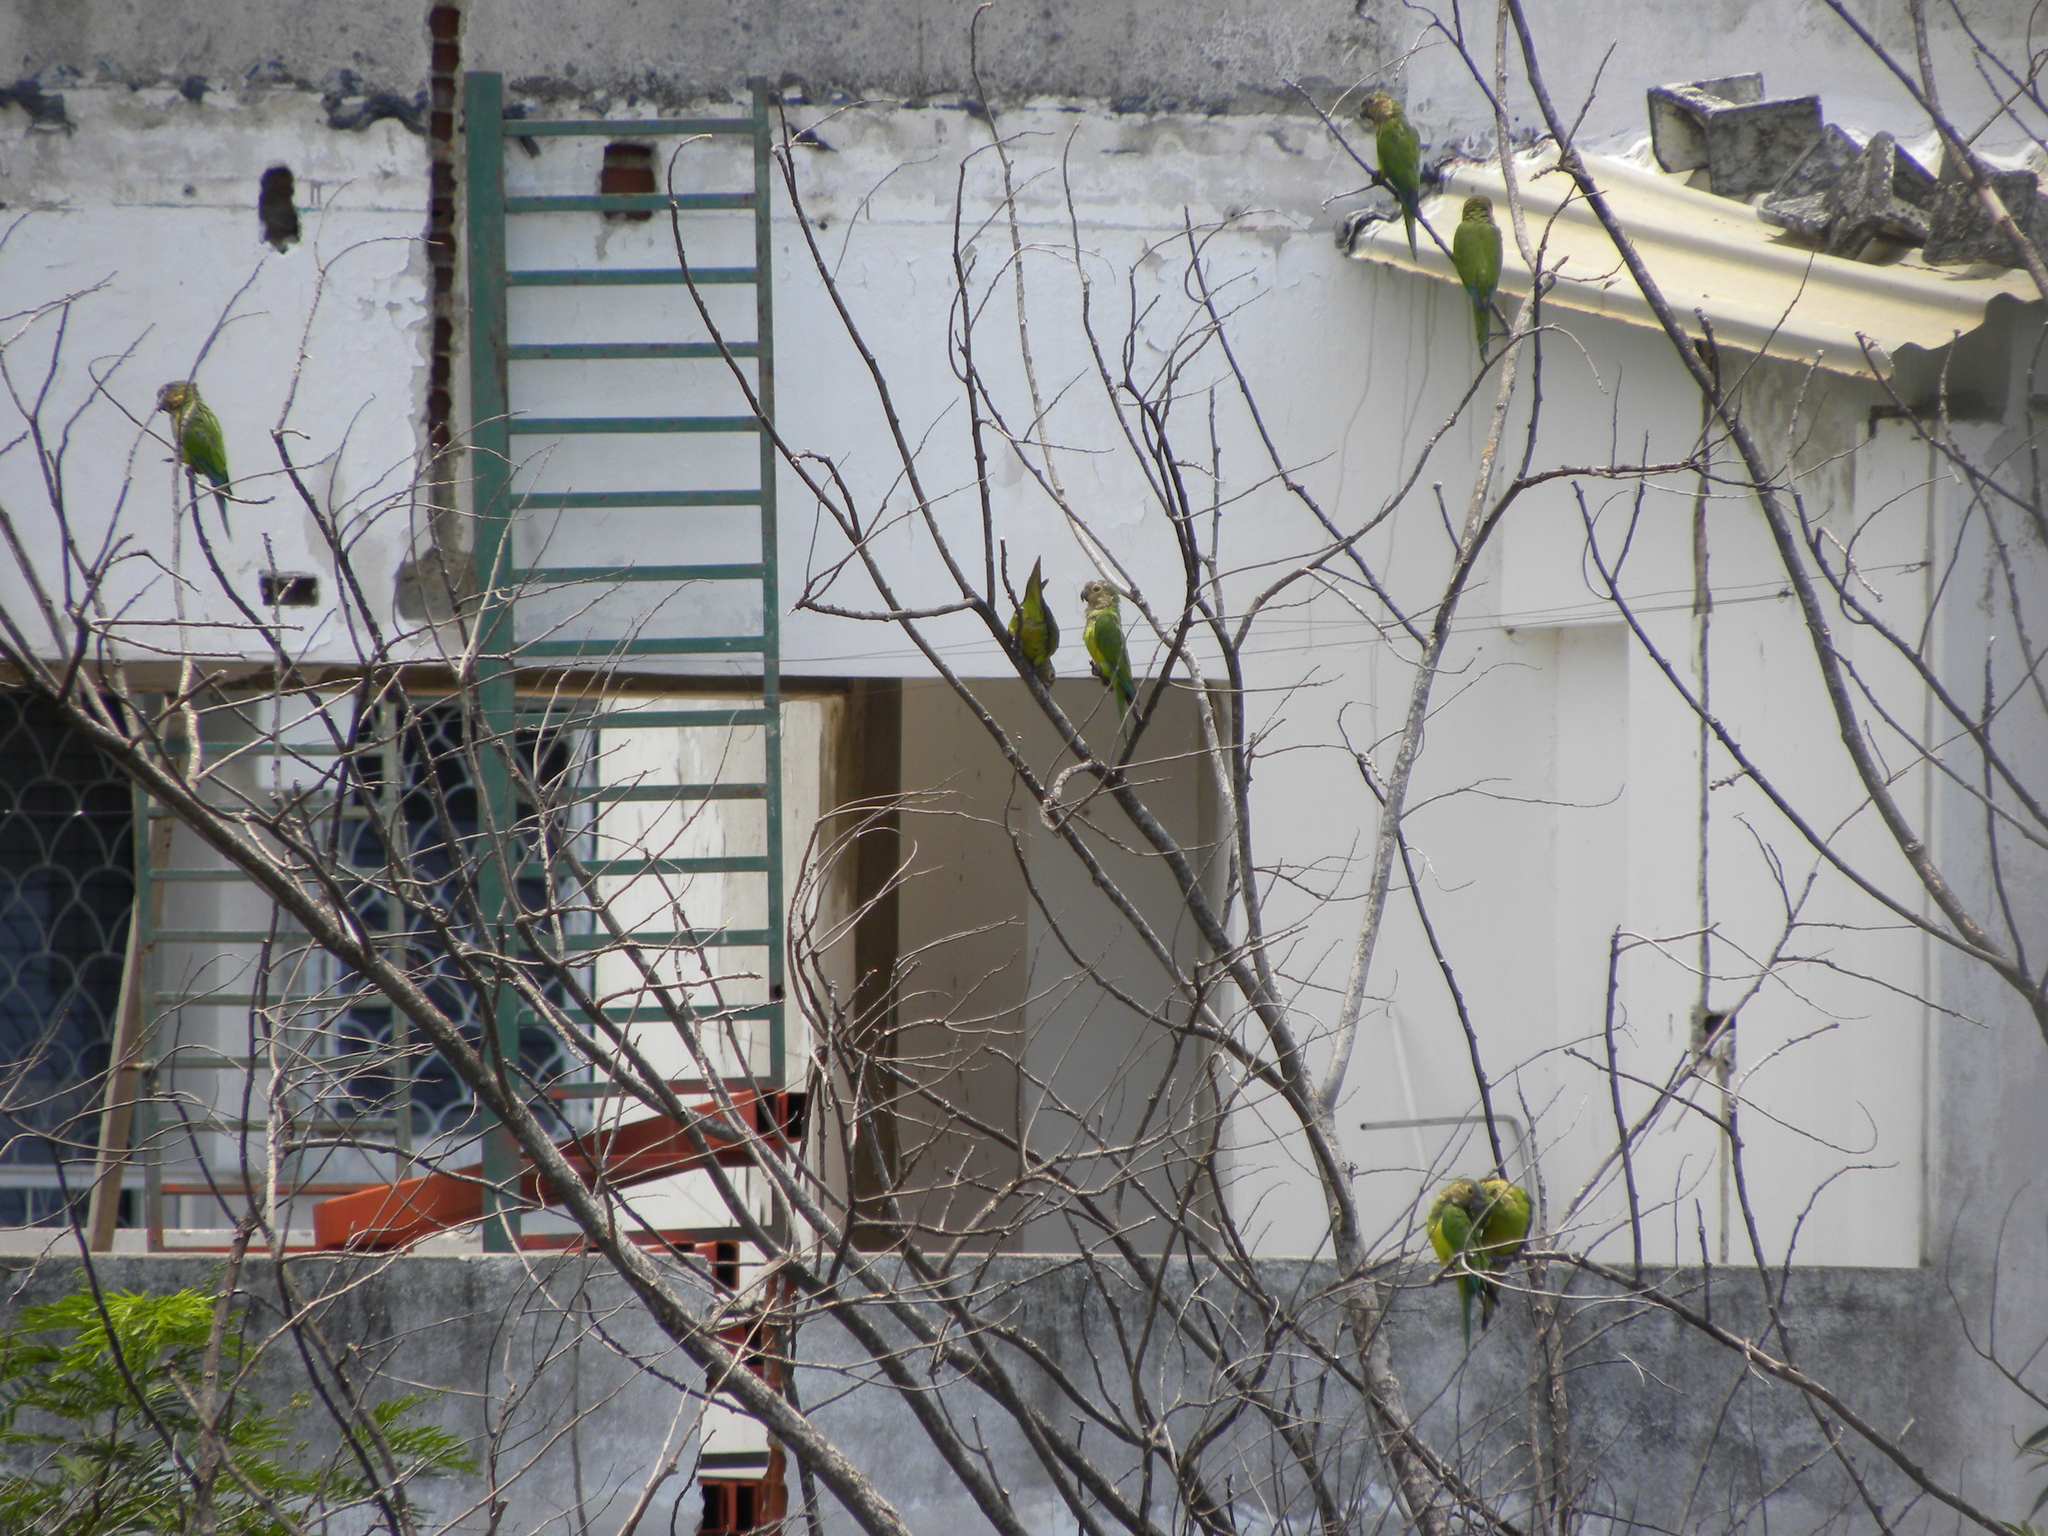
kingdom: Animalia
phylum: Chordata
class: Aves
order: Psittaciformes
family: Psittacidae
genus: Aratinga
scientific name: Aratinga pertinax
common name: Brown-throated parakeet
